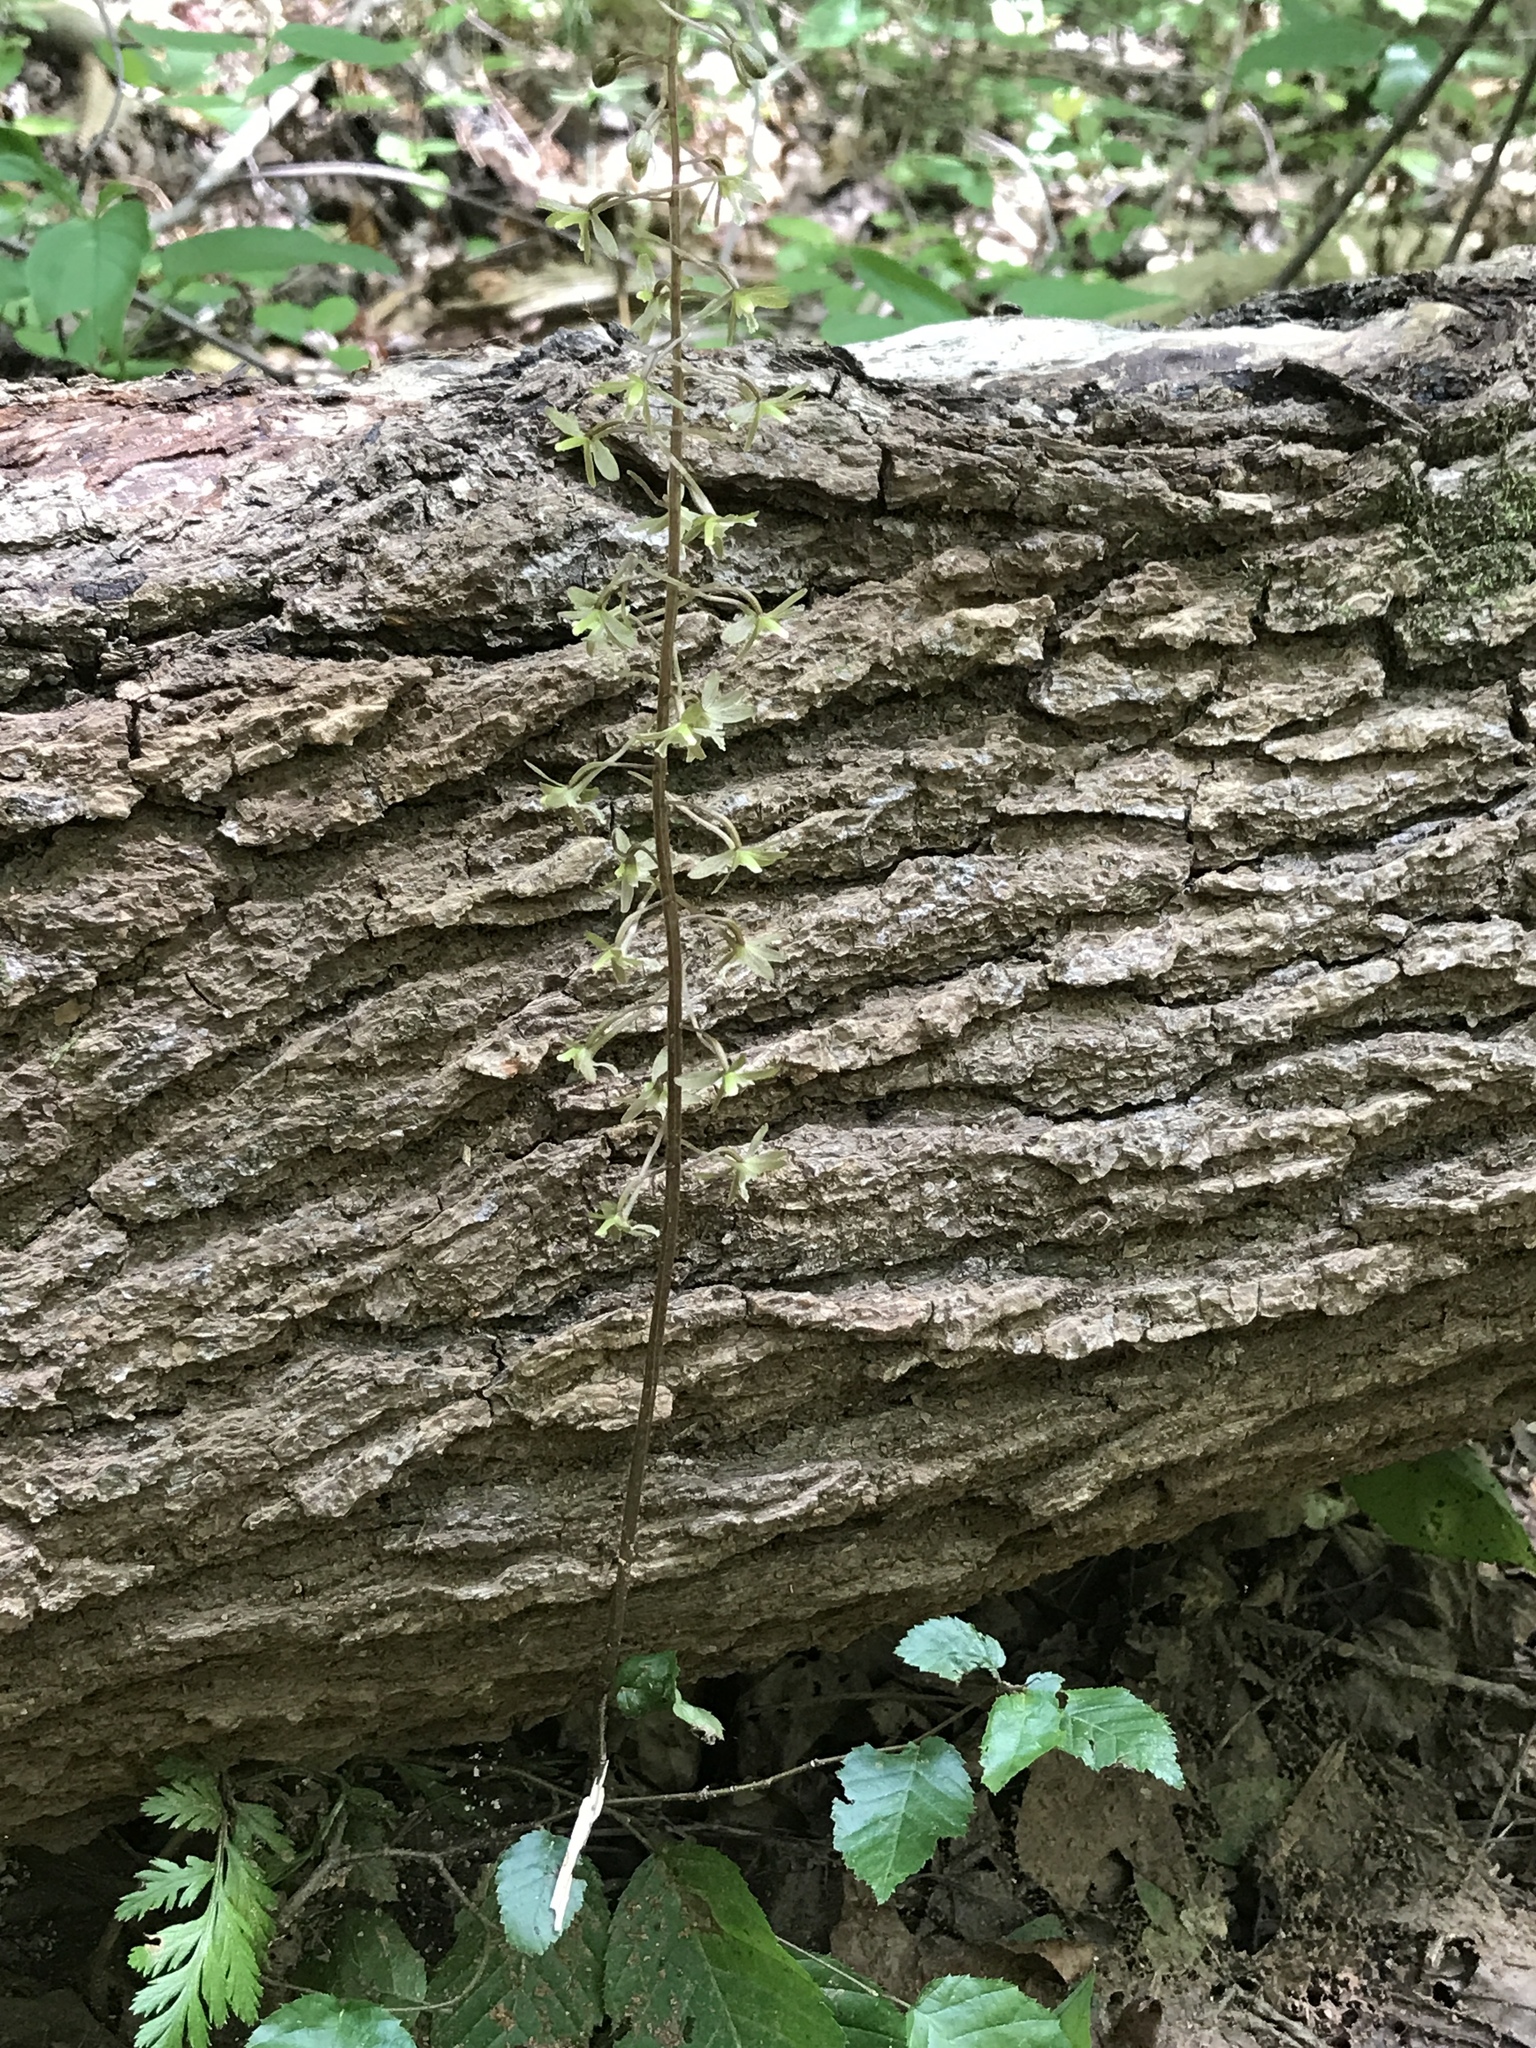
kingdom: Plantae
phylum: Tracheophyta
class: Liliopsida
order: Asparagales
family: Orchidaceae
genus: Tipularia
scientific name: Tipularia discolor
